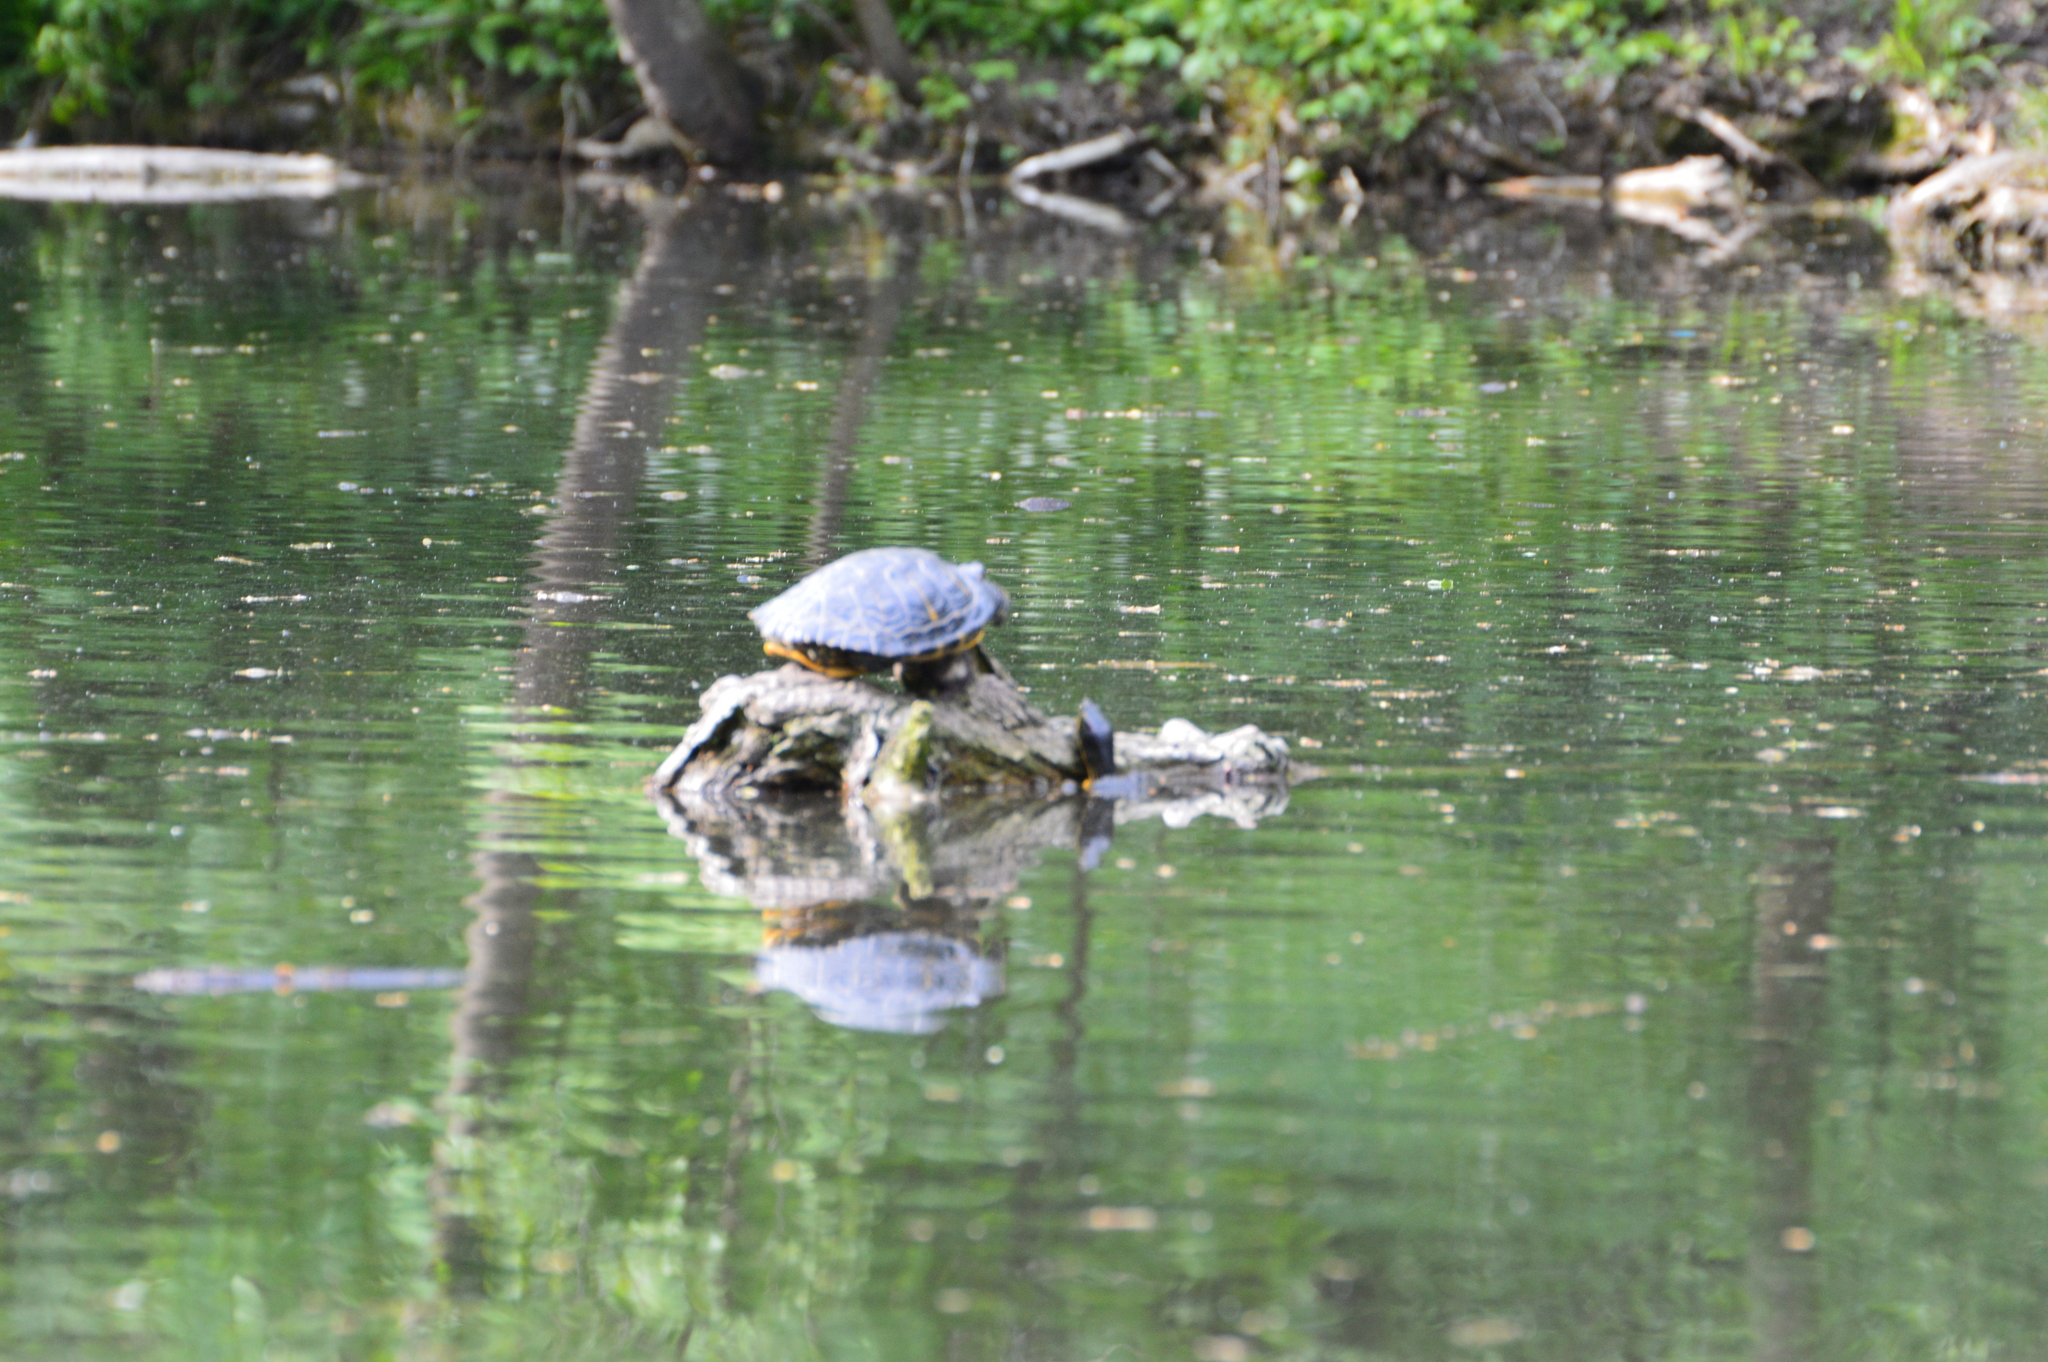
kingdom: Animalia
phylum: Chordata
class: Testudines
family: Emydidae
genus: Trachemys
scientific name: Trachemys scripta
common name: Slider
